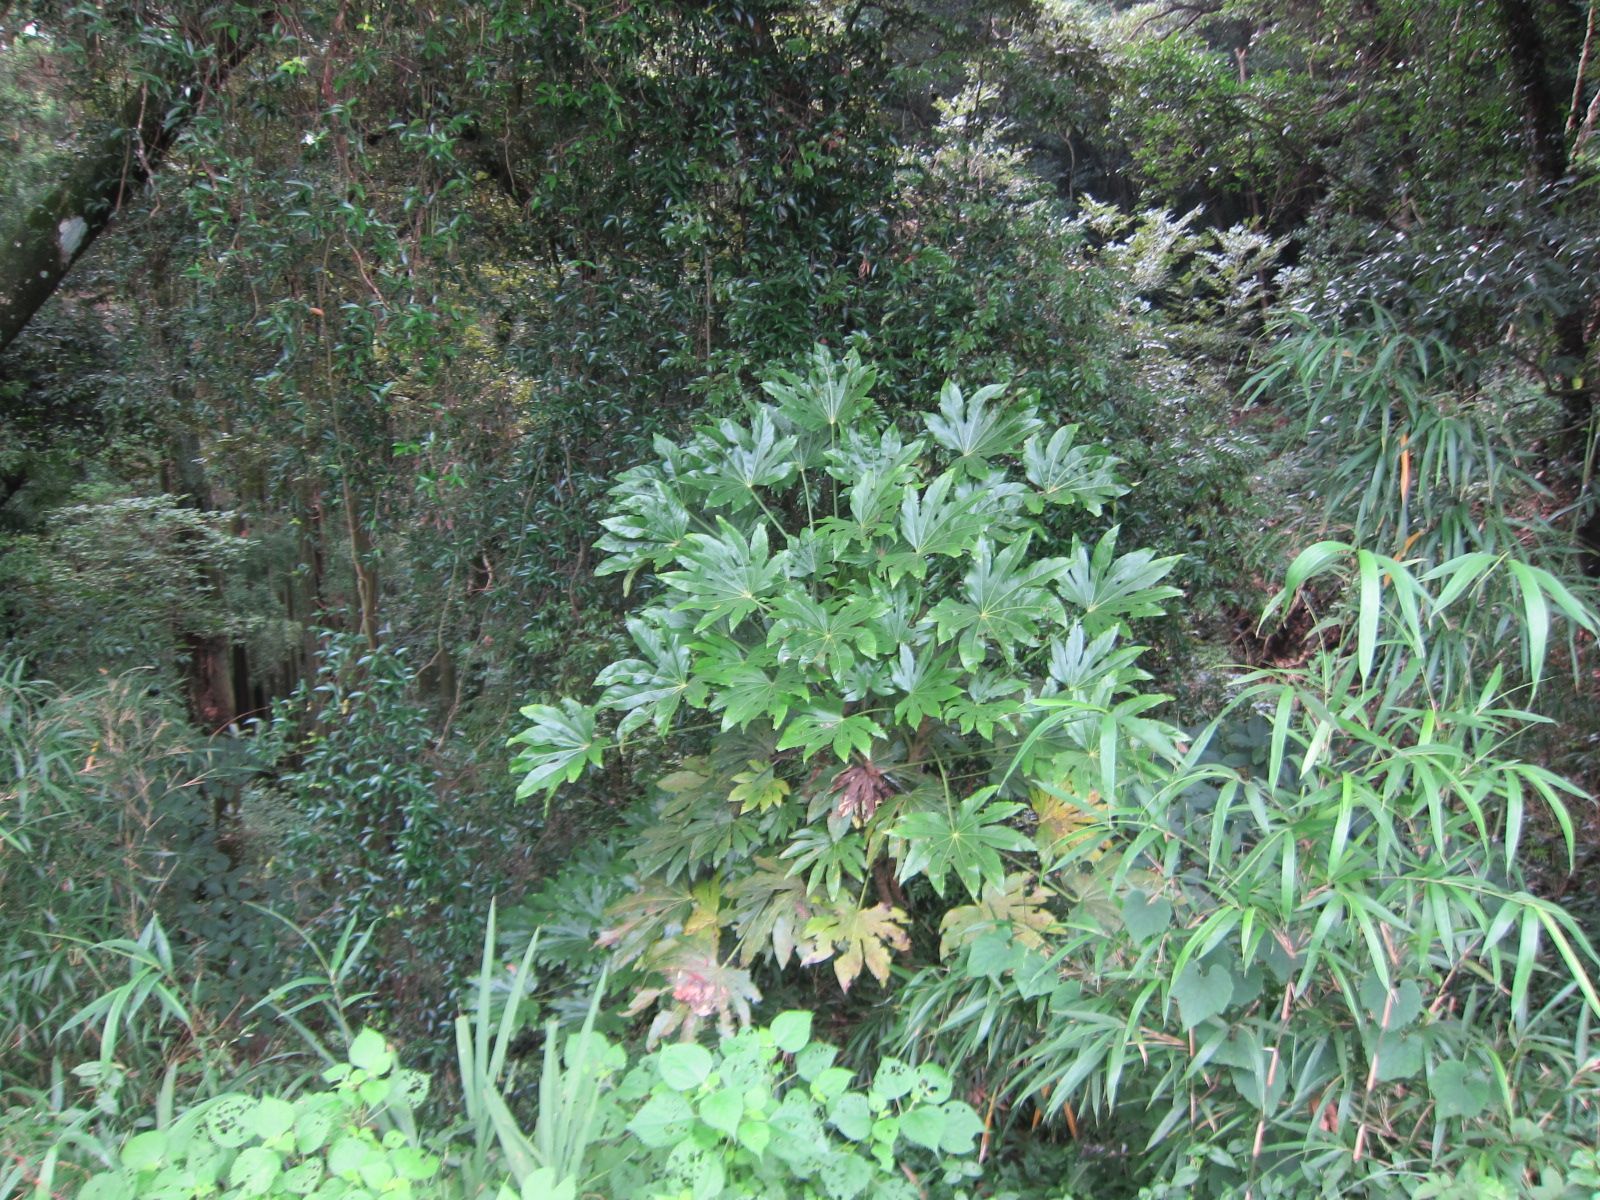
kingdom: Plantae
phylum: Tracheophyta
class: Magnoliopsida
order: Apiales
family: Araliaceae
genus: Fatsia
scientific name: Fatsia japonica
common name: Fatsia
